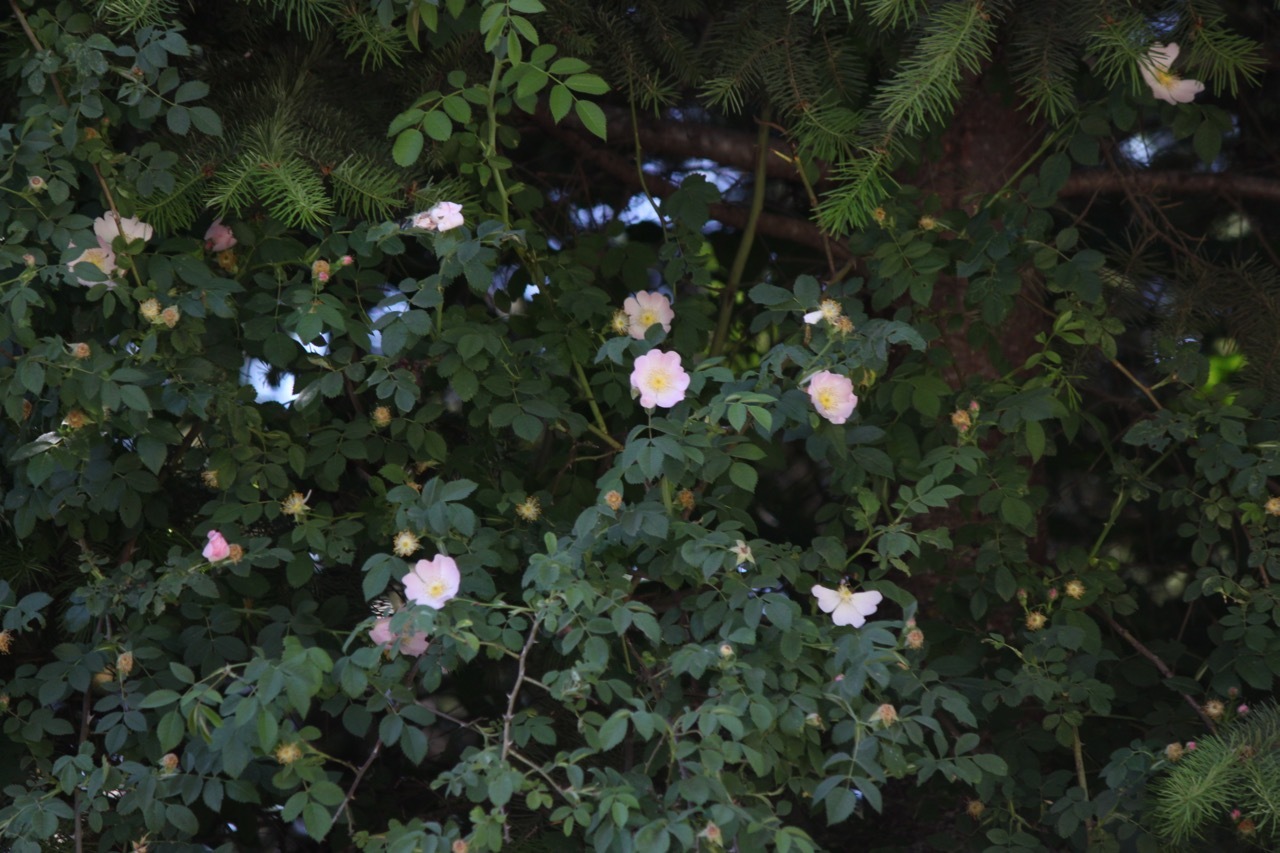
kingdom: Plantae
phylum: Tracheophyta
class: Magnoliopsida
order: Rosales
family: Rosaceae
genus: Rosa
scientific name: Rosa gymnocarpa
